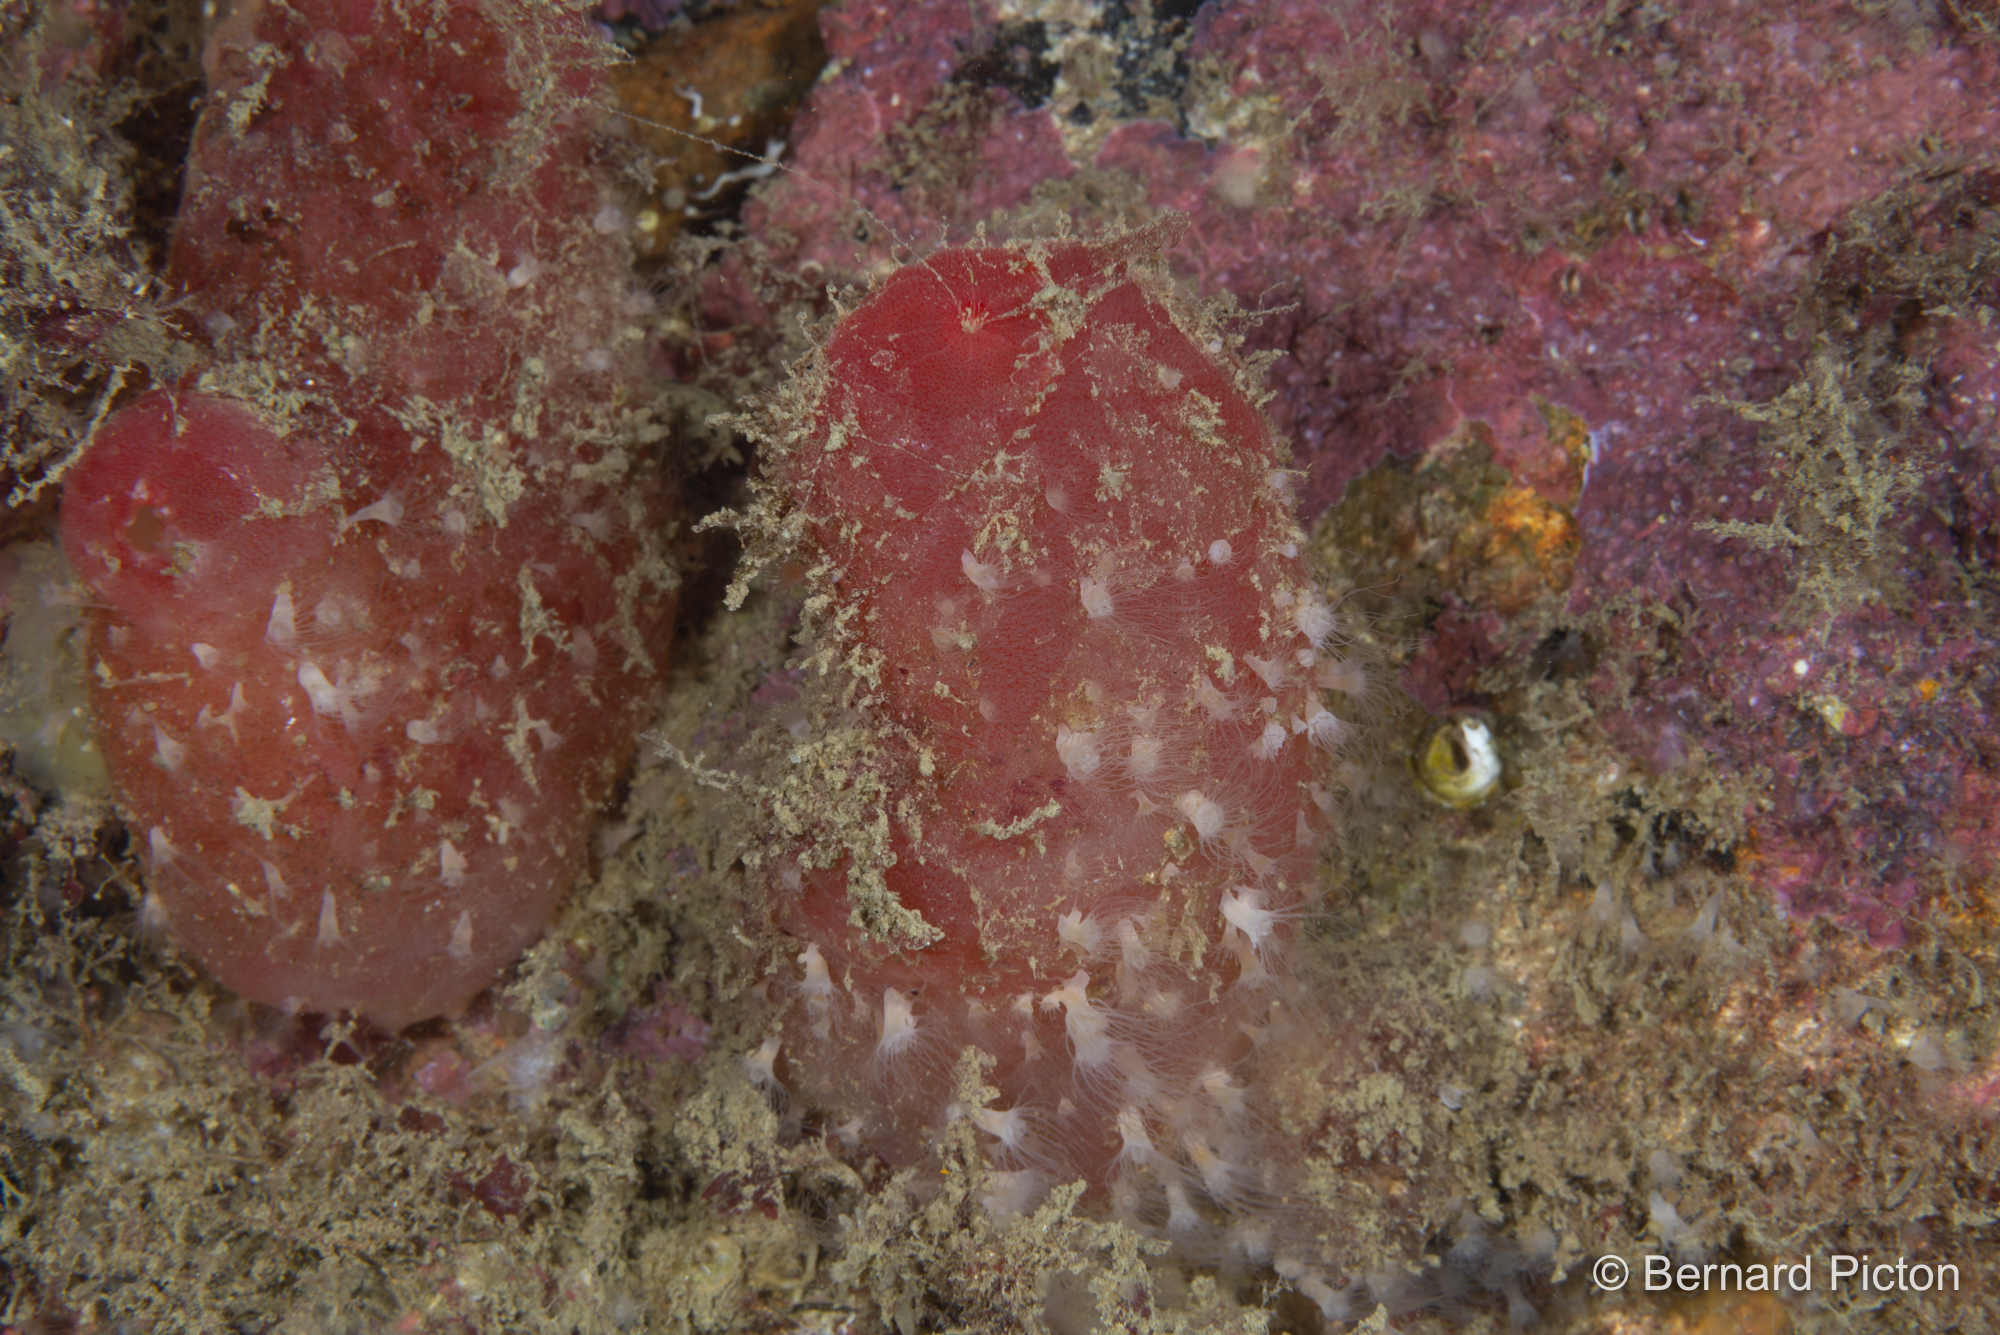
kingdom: Animalia
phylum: Cnidaria
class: Scyphozoa
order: Semaeostomeae
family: Ulmaridae
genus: Aurelia
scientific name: Aurelia aurita
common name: Moon jellyfish
